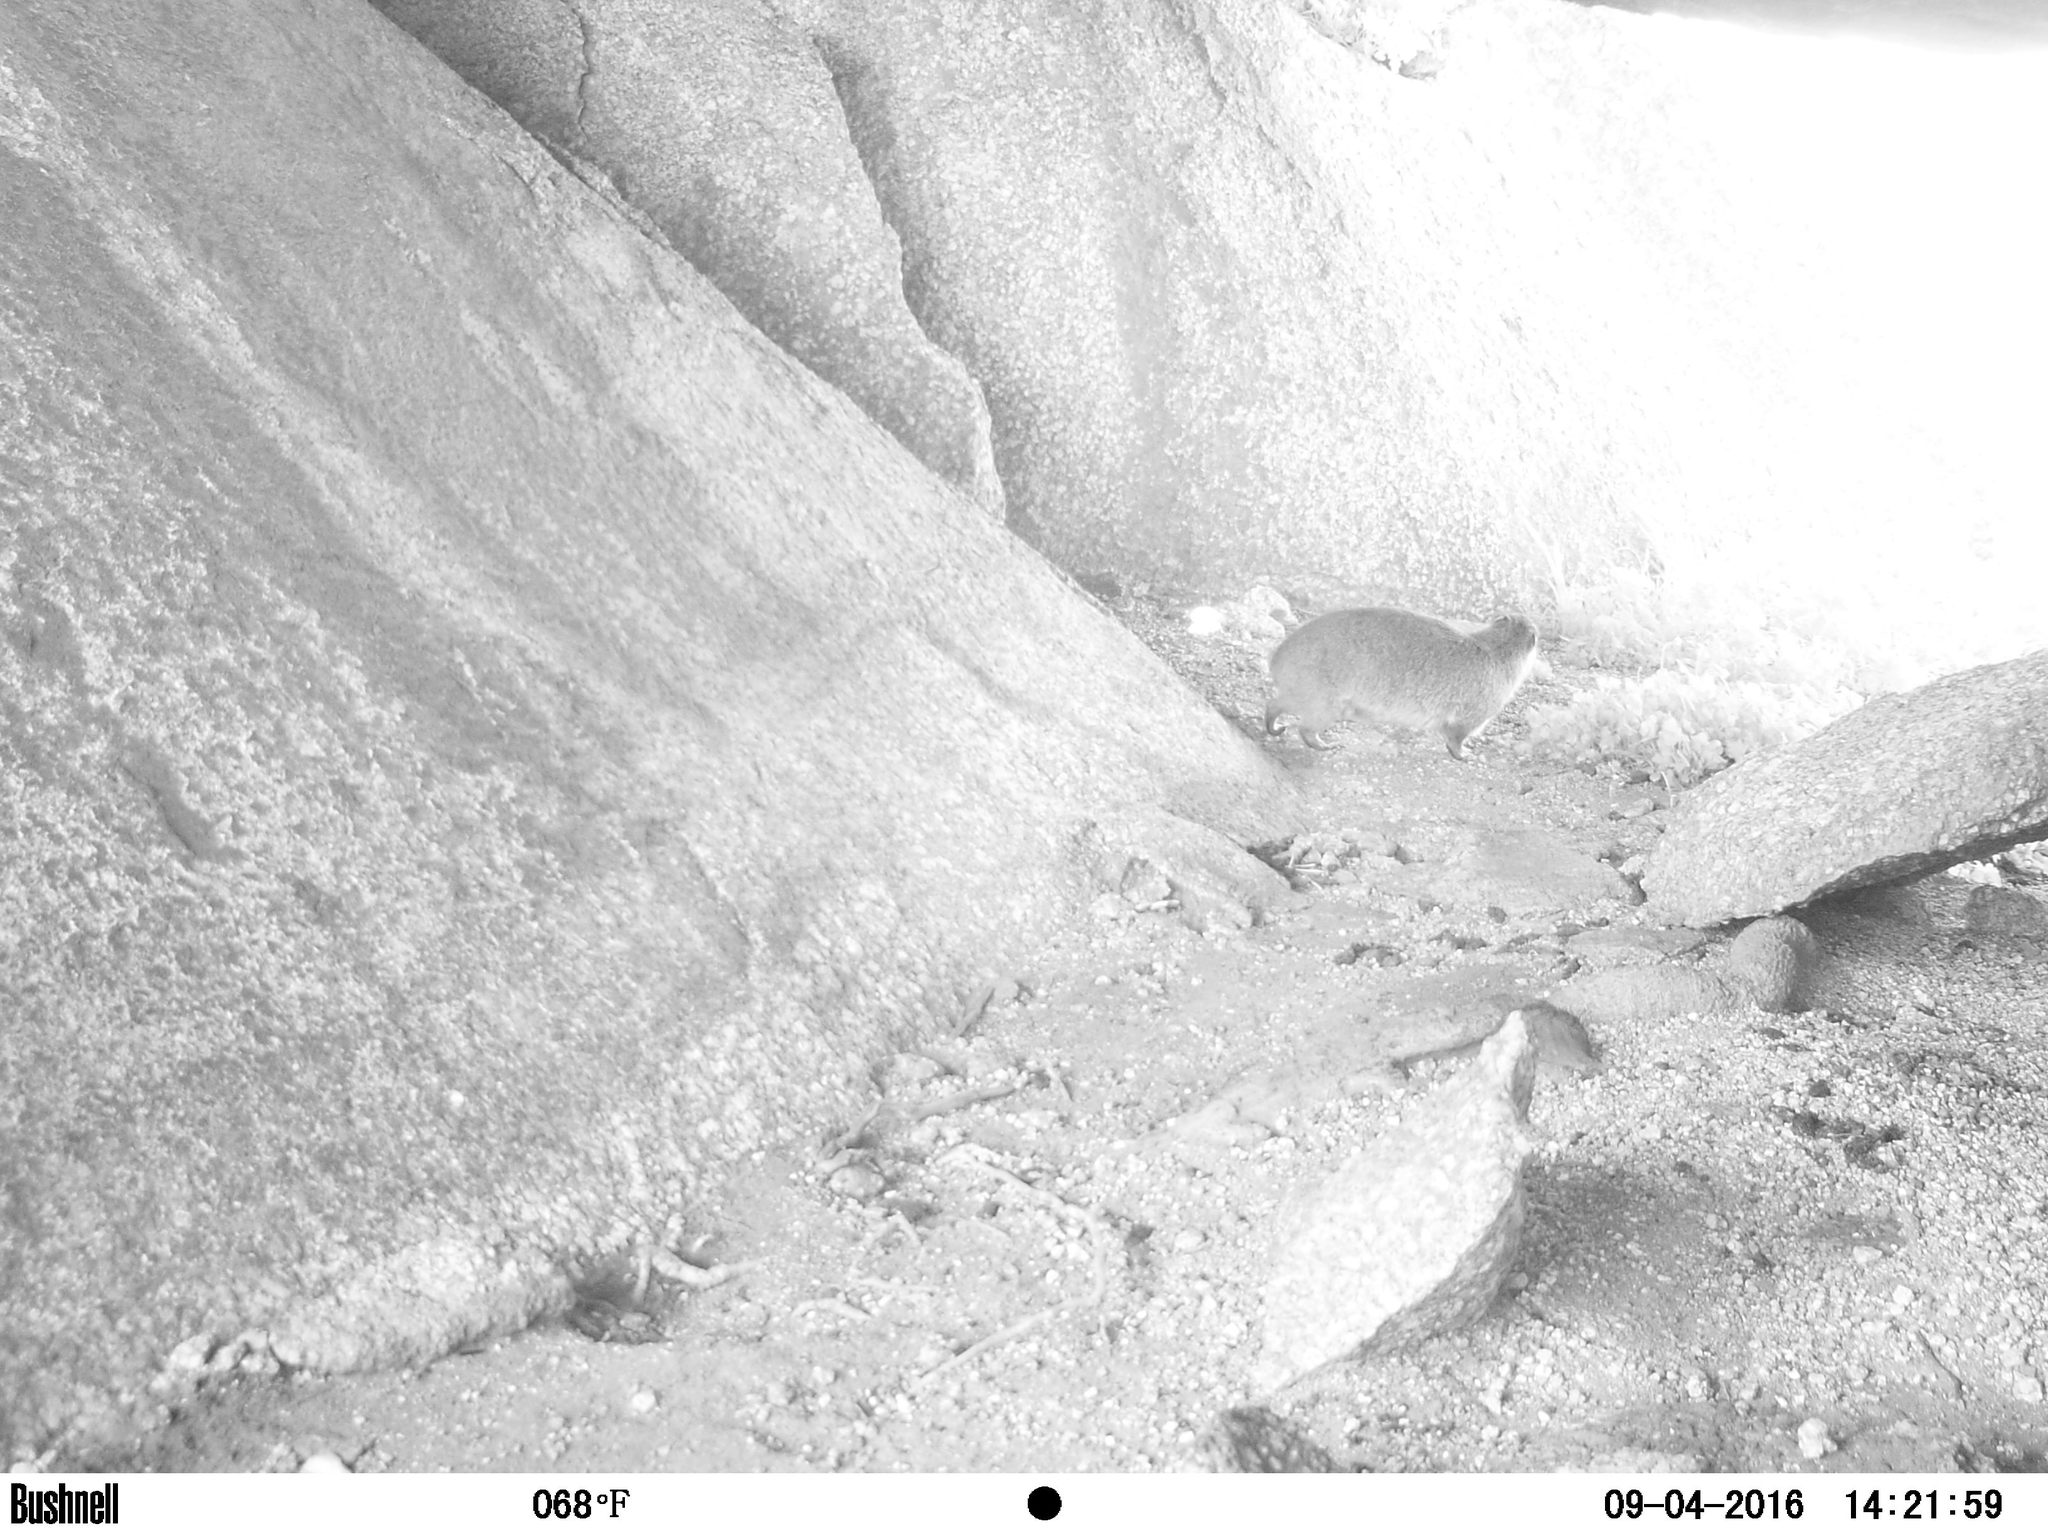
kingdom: Animalia
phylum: Chordata
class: Mammalia
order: Hyracoidea
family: Procaviidae
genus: Procavia
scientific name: Procavia capensis
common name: Rock hyrax
